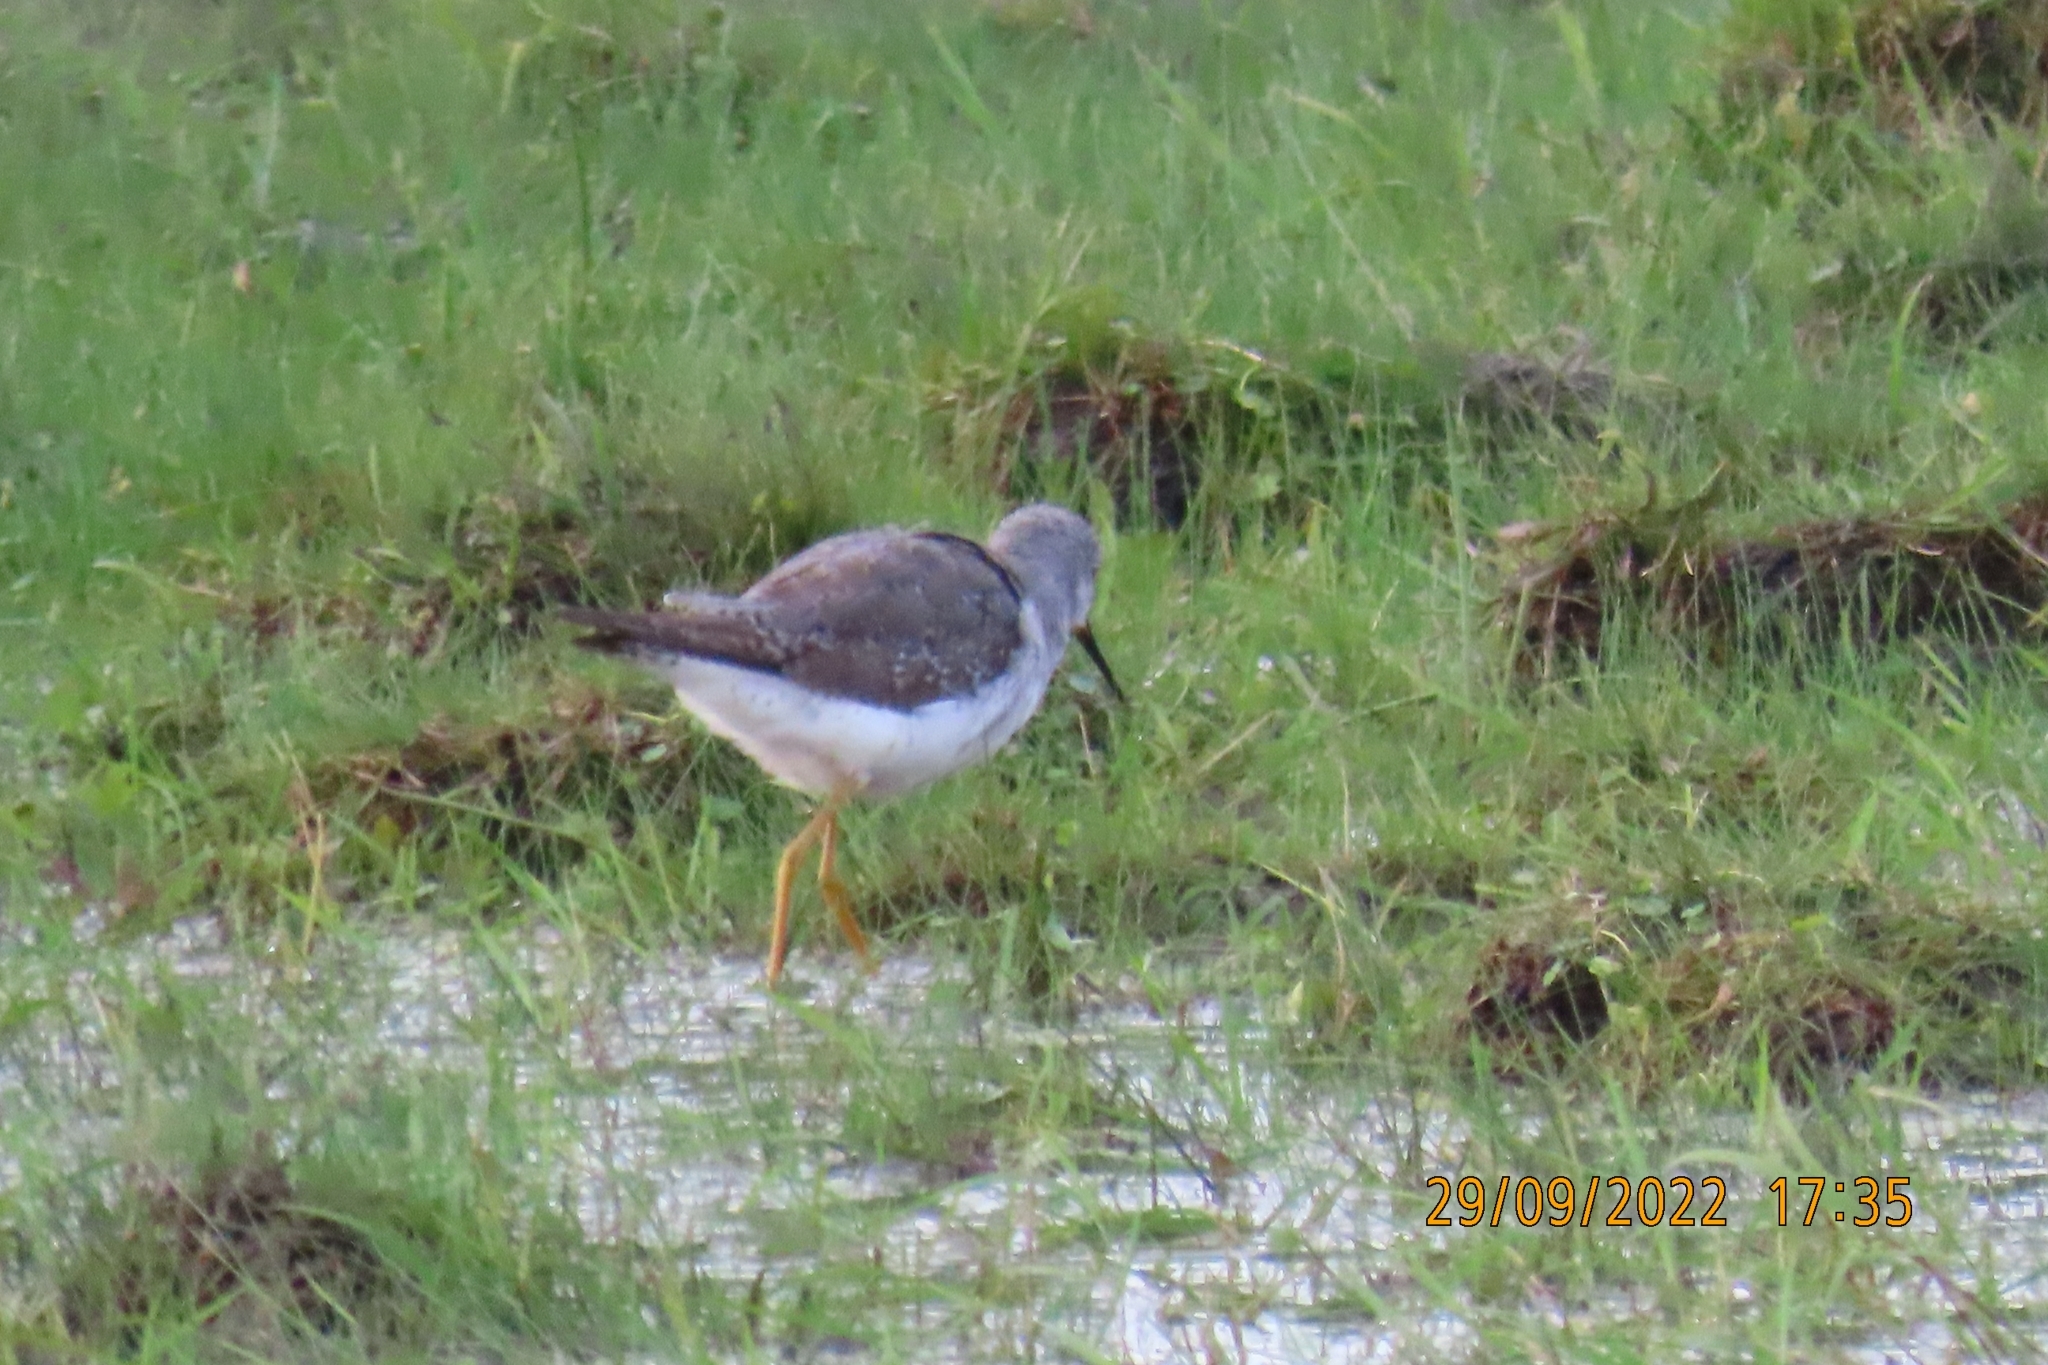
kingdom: Animalia
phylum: Chordata
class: Aves
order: Charadriiformes
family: Scolopacidae
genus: Tringa
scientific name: Tringa melanoleuca
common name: Greater yellowlegs
